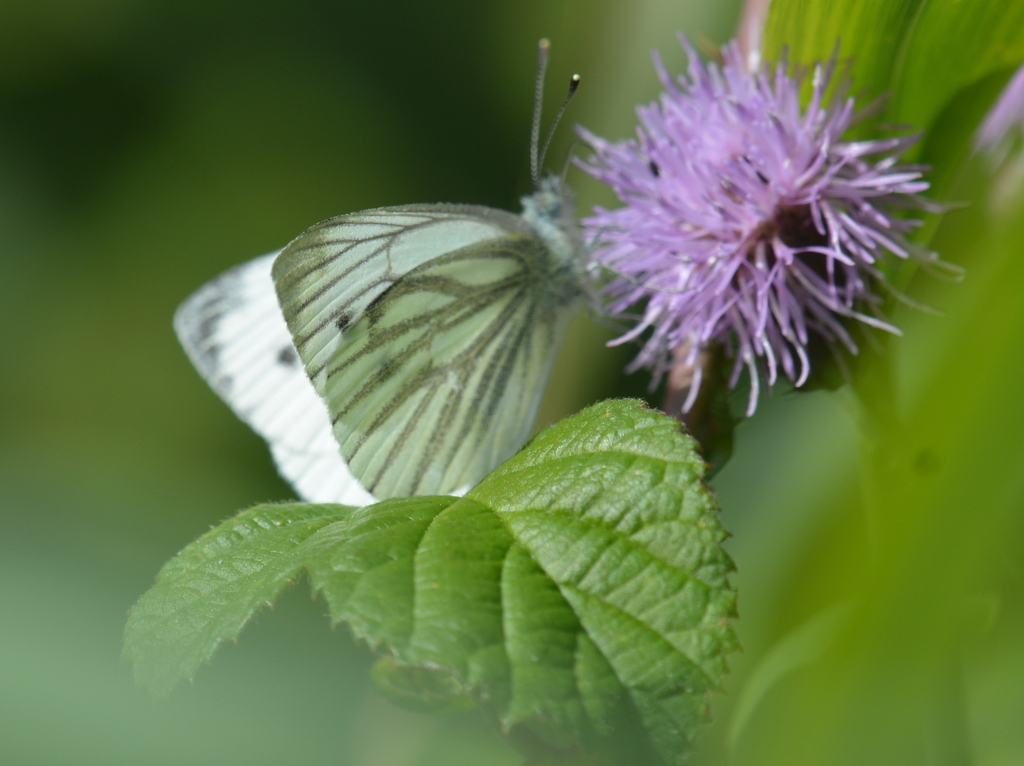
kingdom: Animalia
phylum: Arthropoda
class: Insecta
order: Lepidoptera
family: Pieridae
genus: Pieris
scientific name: Pieris napi
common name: Green-veined white
